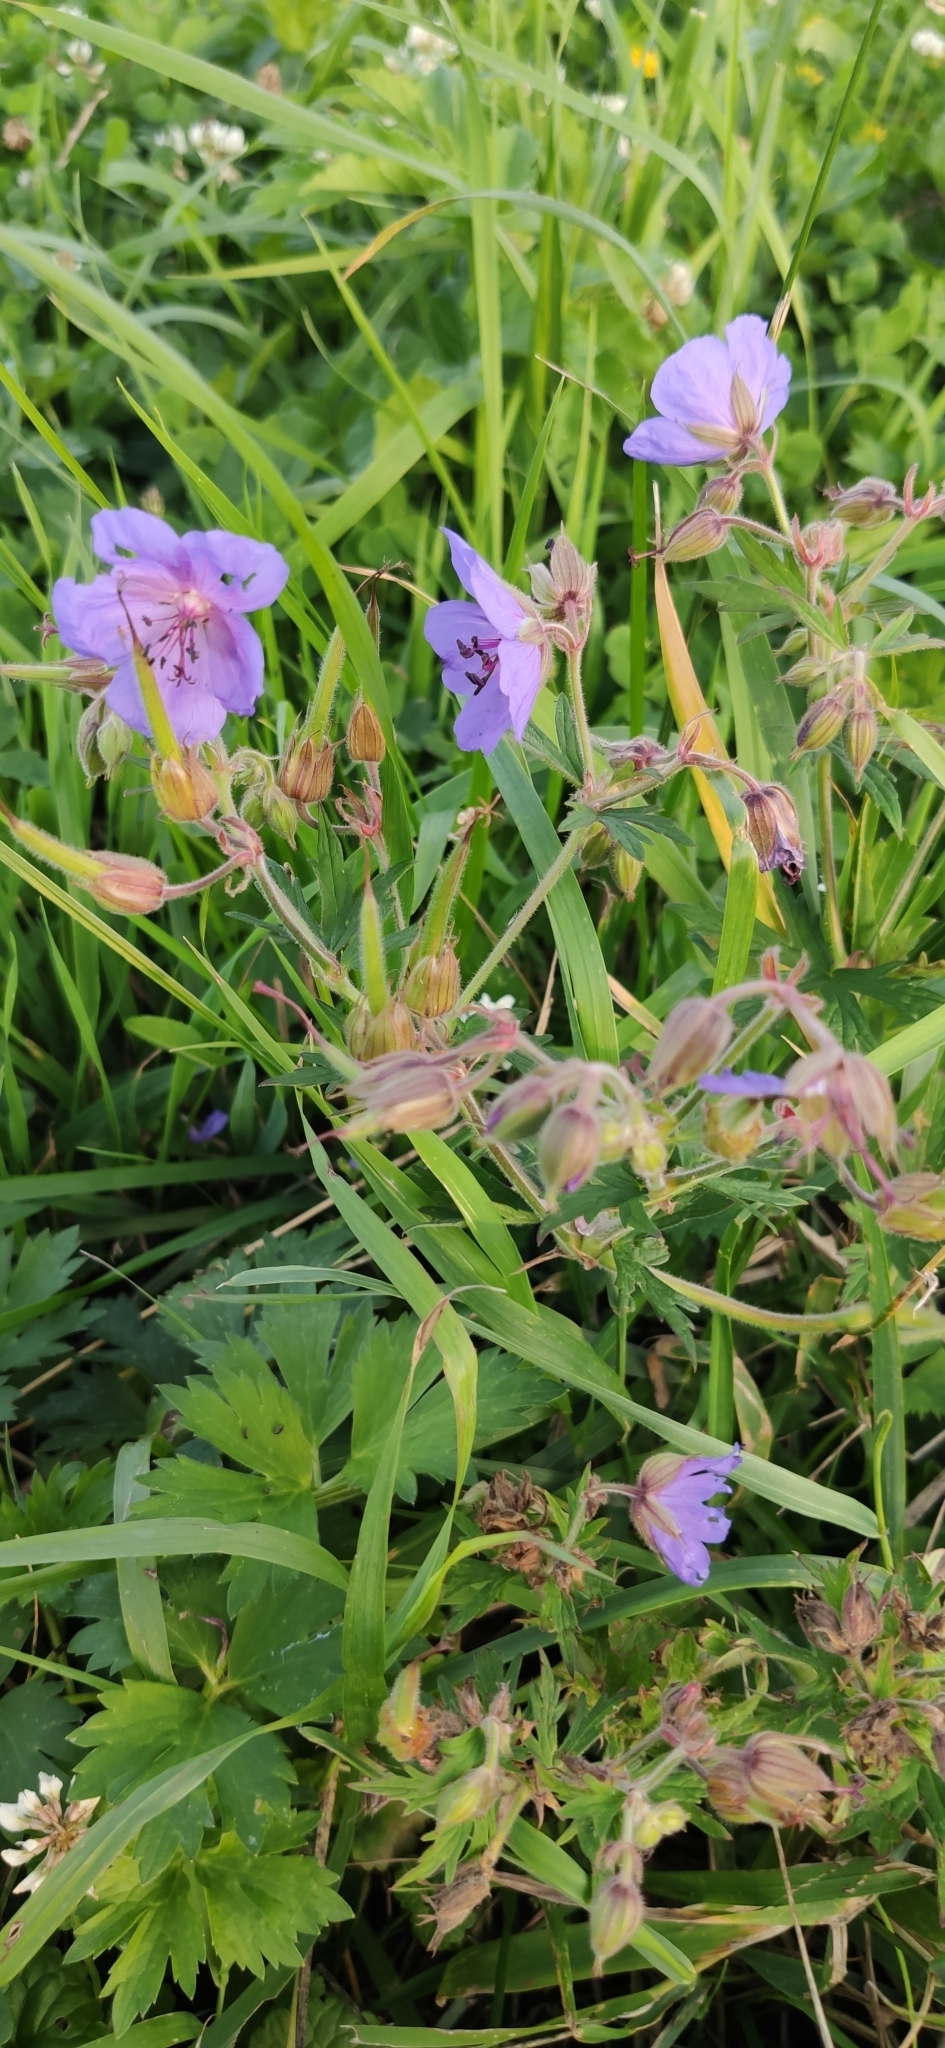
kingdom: Plantae
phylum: Tracheophyta
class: Magnoliopsida
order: Geraniales
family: Geraniaceae
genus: Geranium
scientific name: Geranium pratense
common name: Meadow crane's-bill
